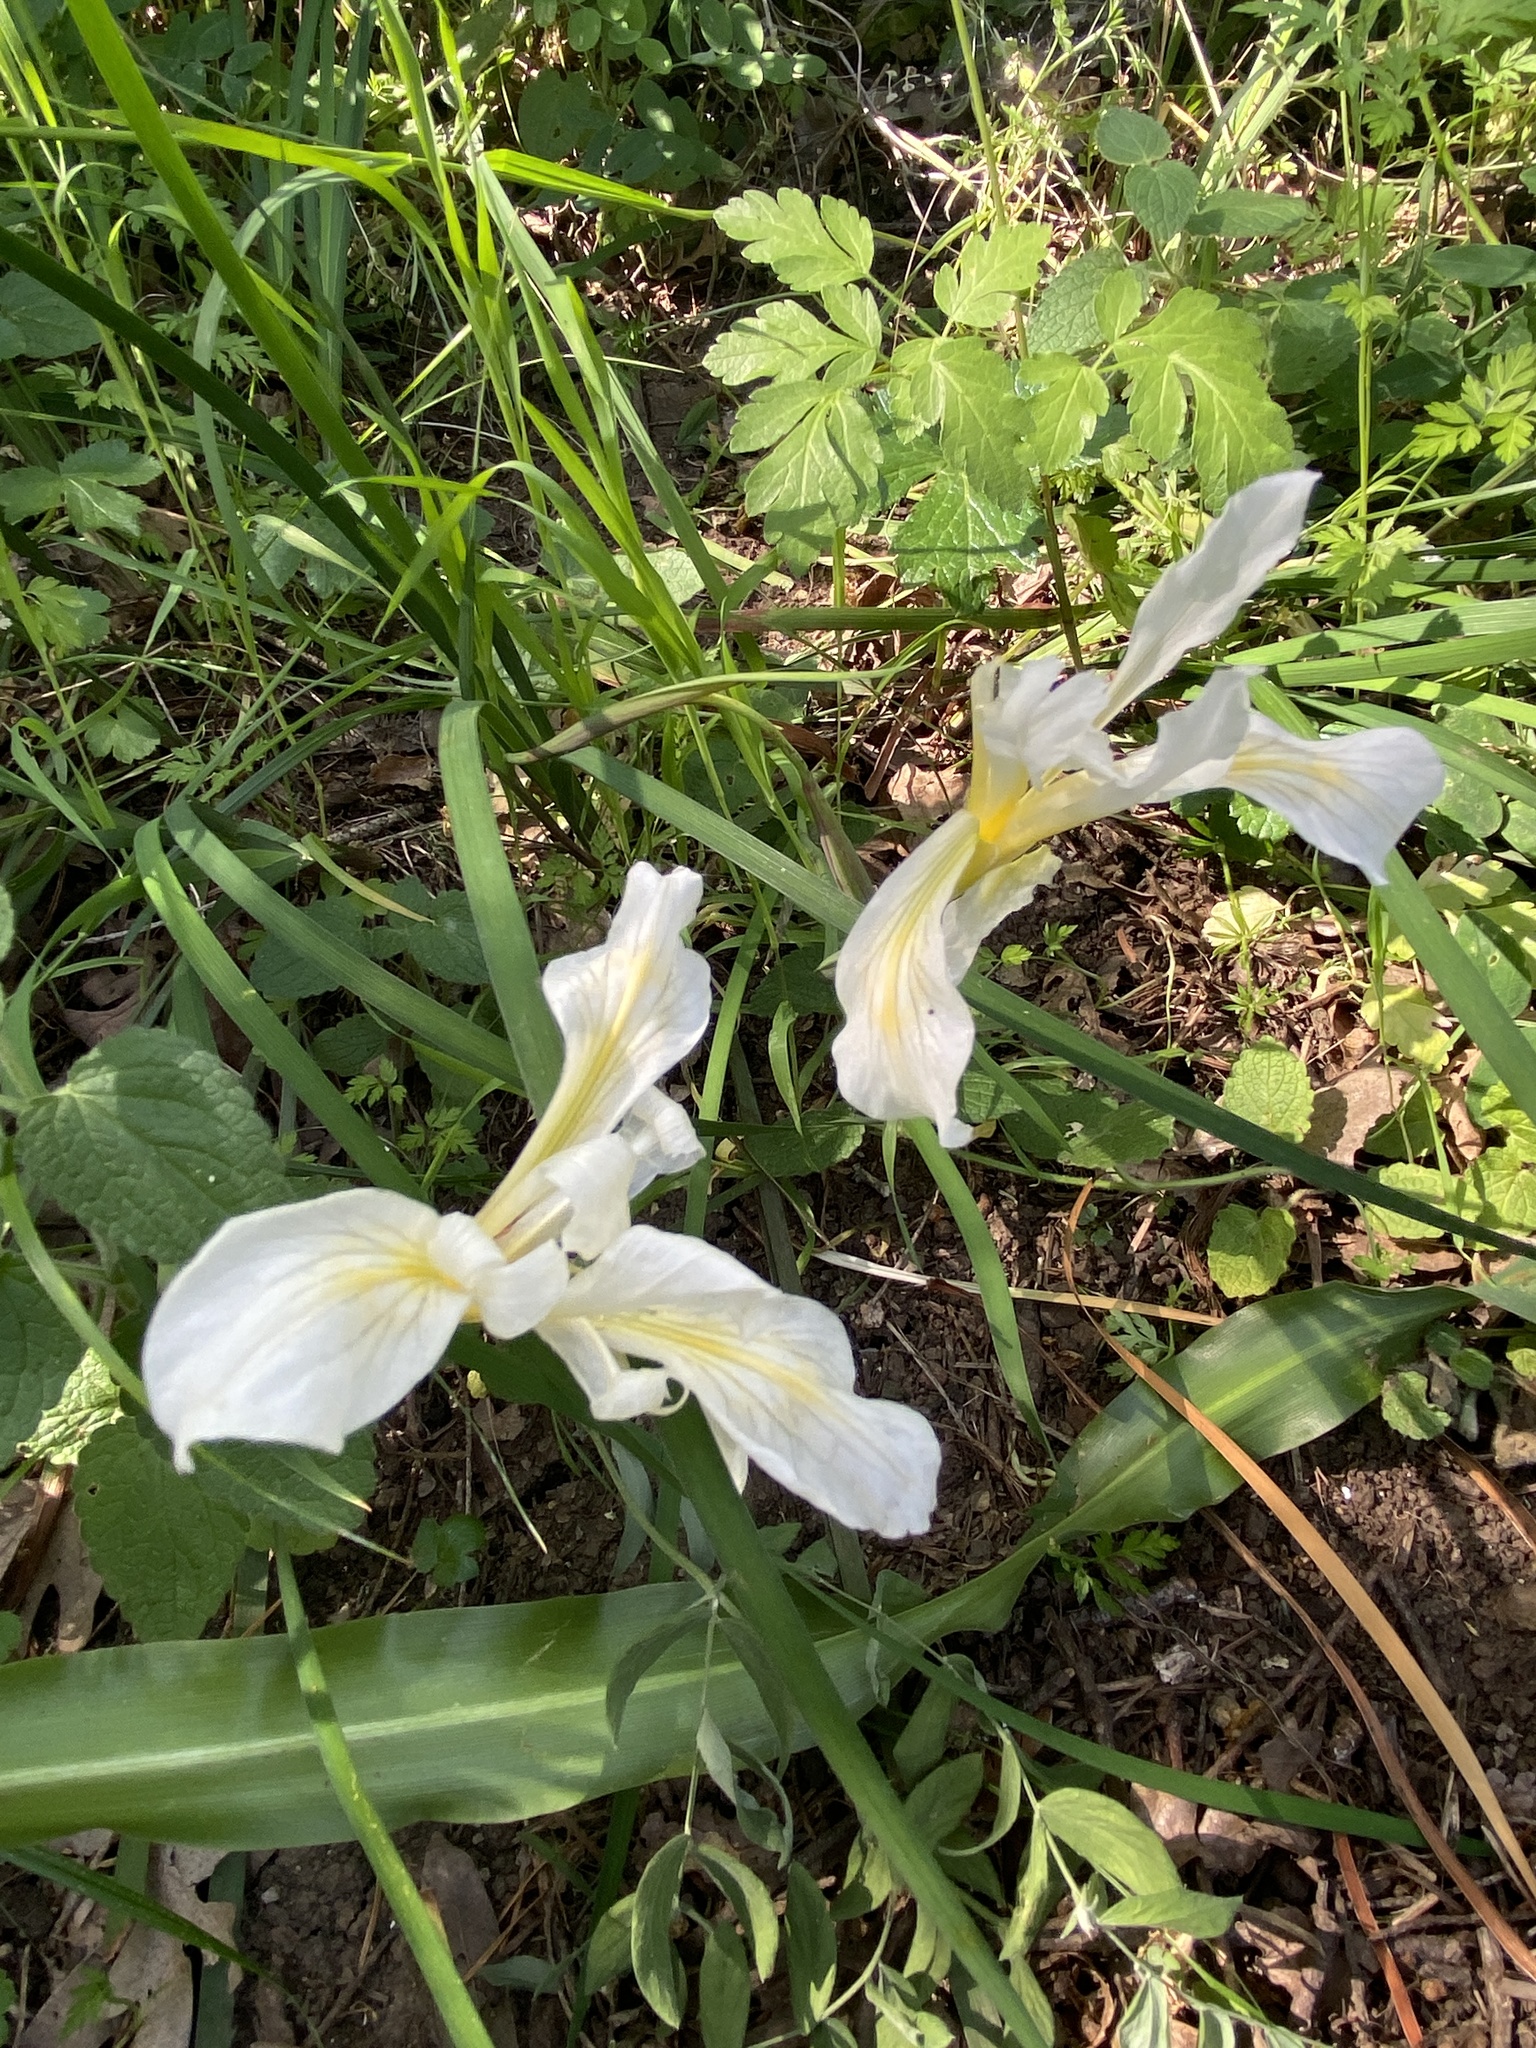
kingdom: Plantae
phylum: Tracheophyta
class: Liliopsida
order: Asparagales
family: Iridaceae
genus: Iris
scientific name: Iris fernaldii
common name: Fernald's iris
